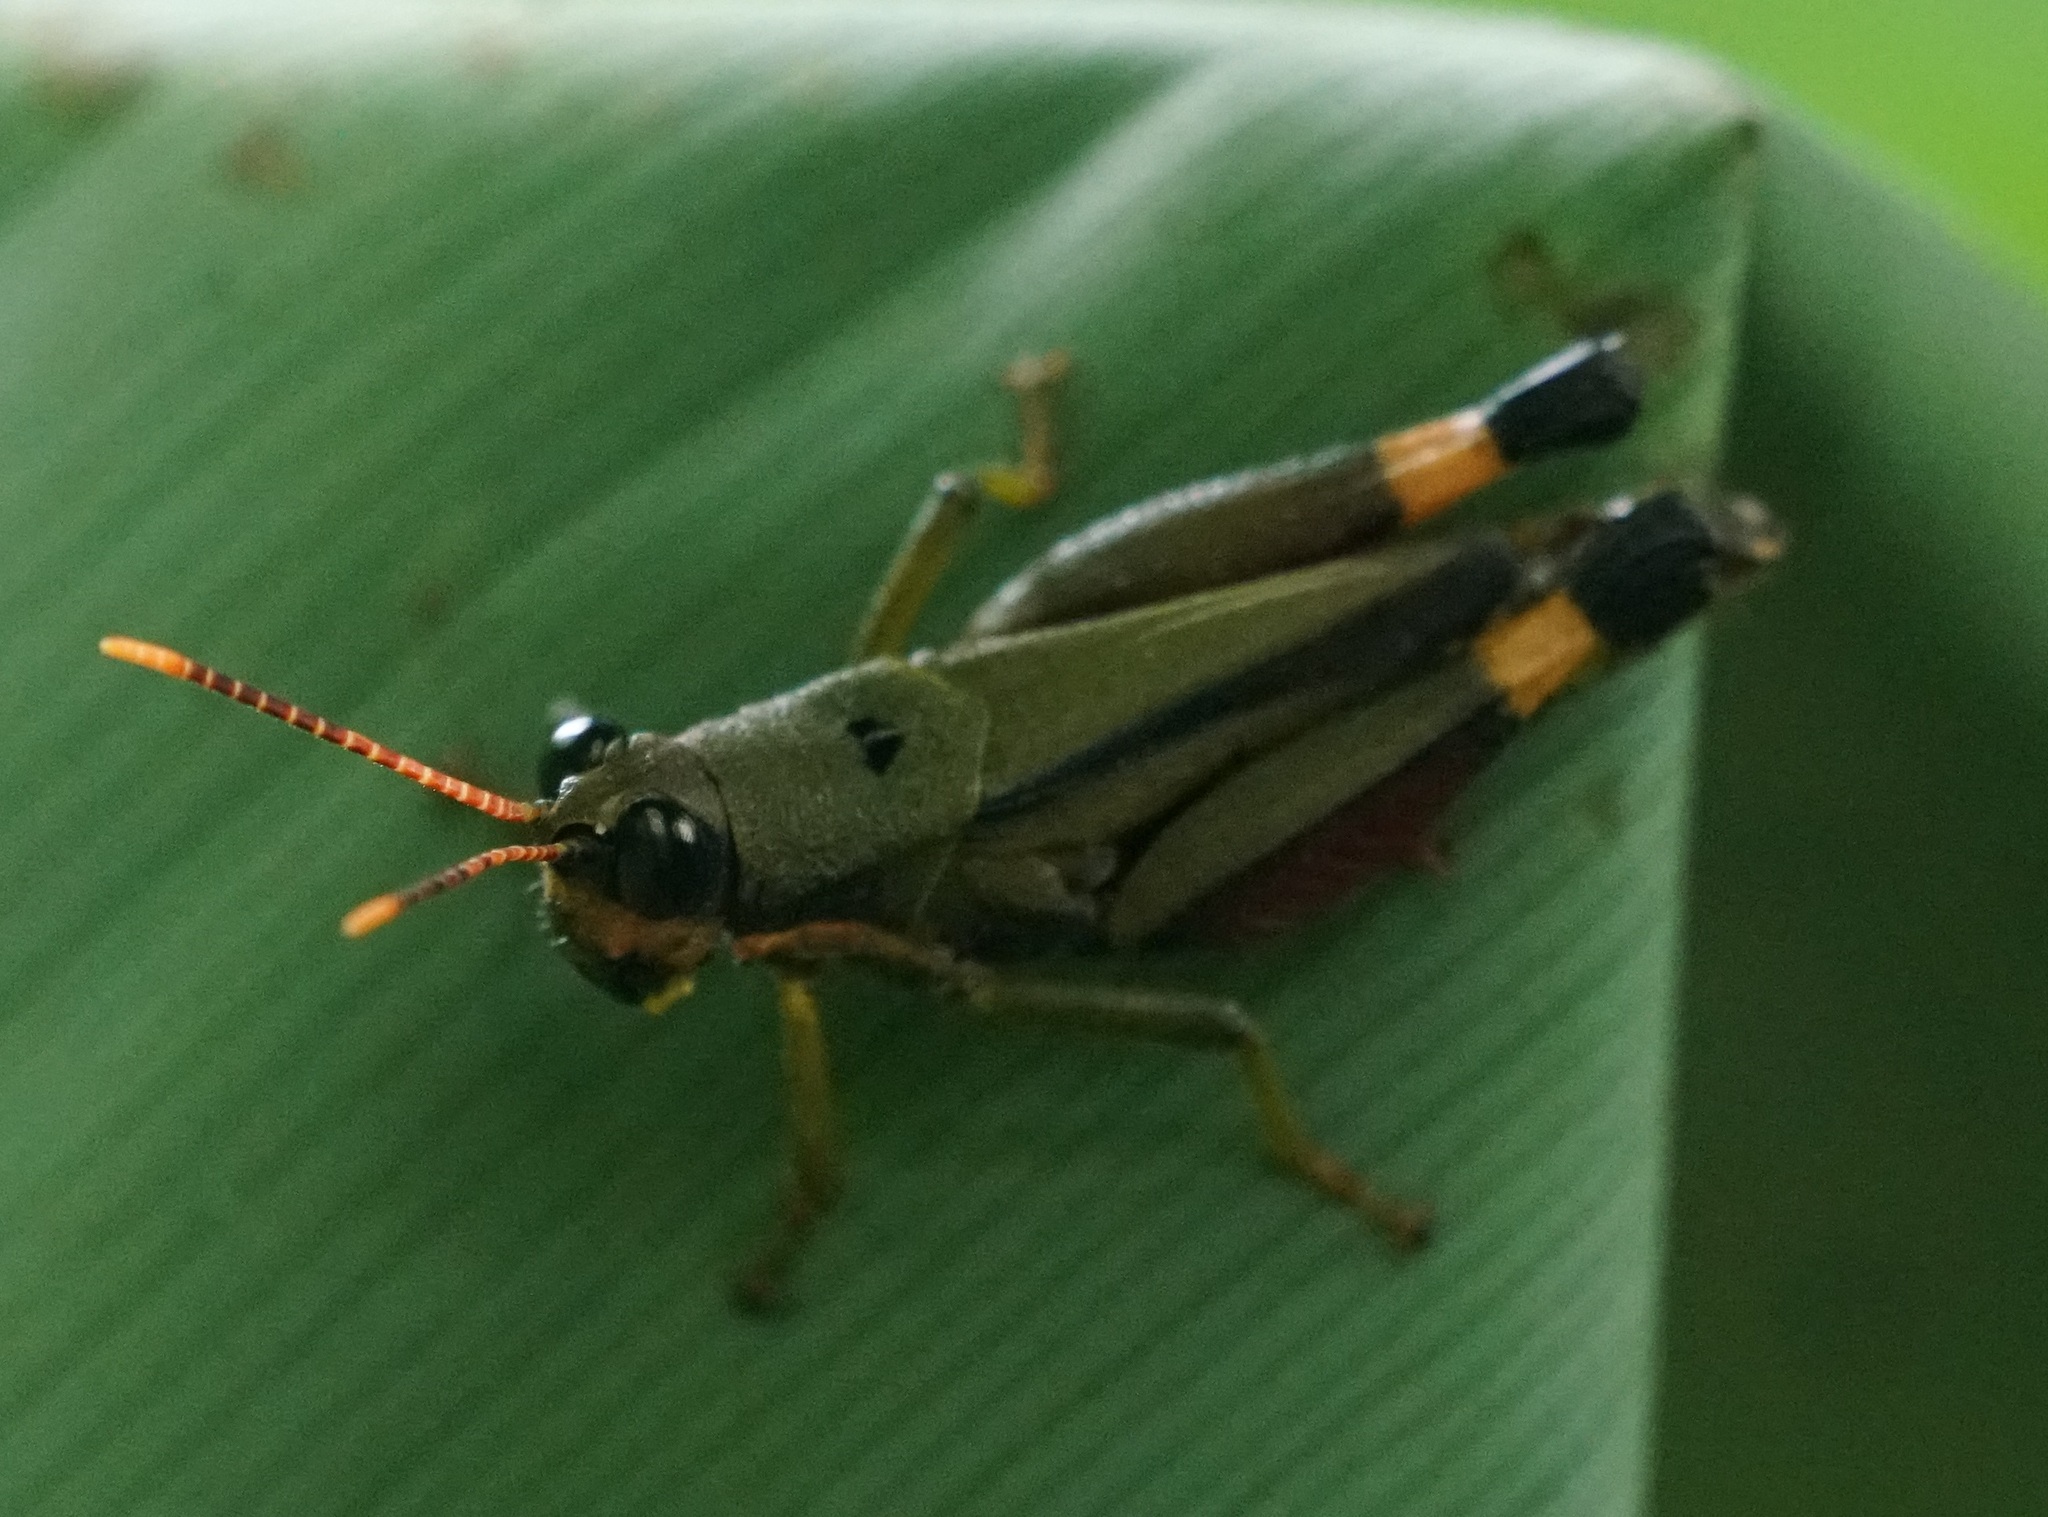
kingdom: Animalia
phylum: Arthropoda
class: Insecta
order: Orthoptera
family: Acrididae
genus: Traulia
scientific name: Traulia bimaculata
